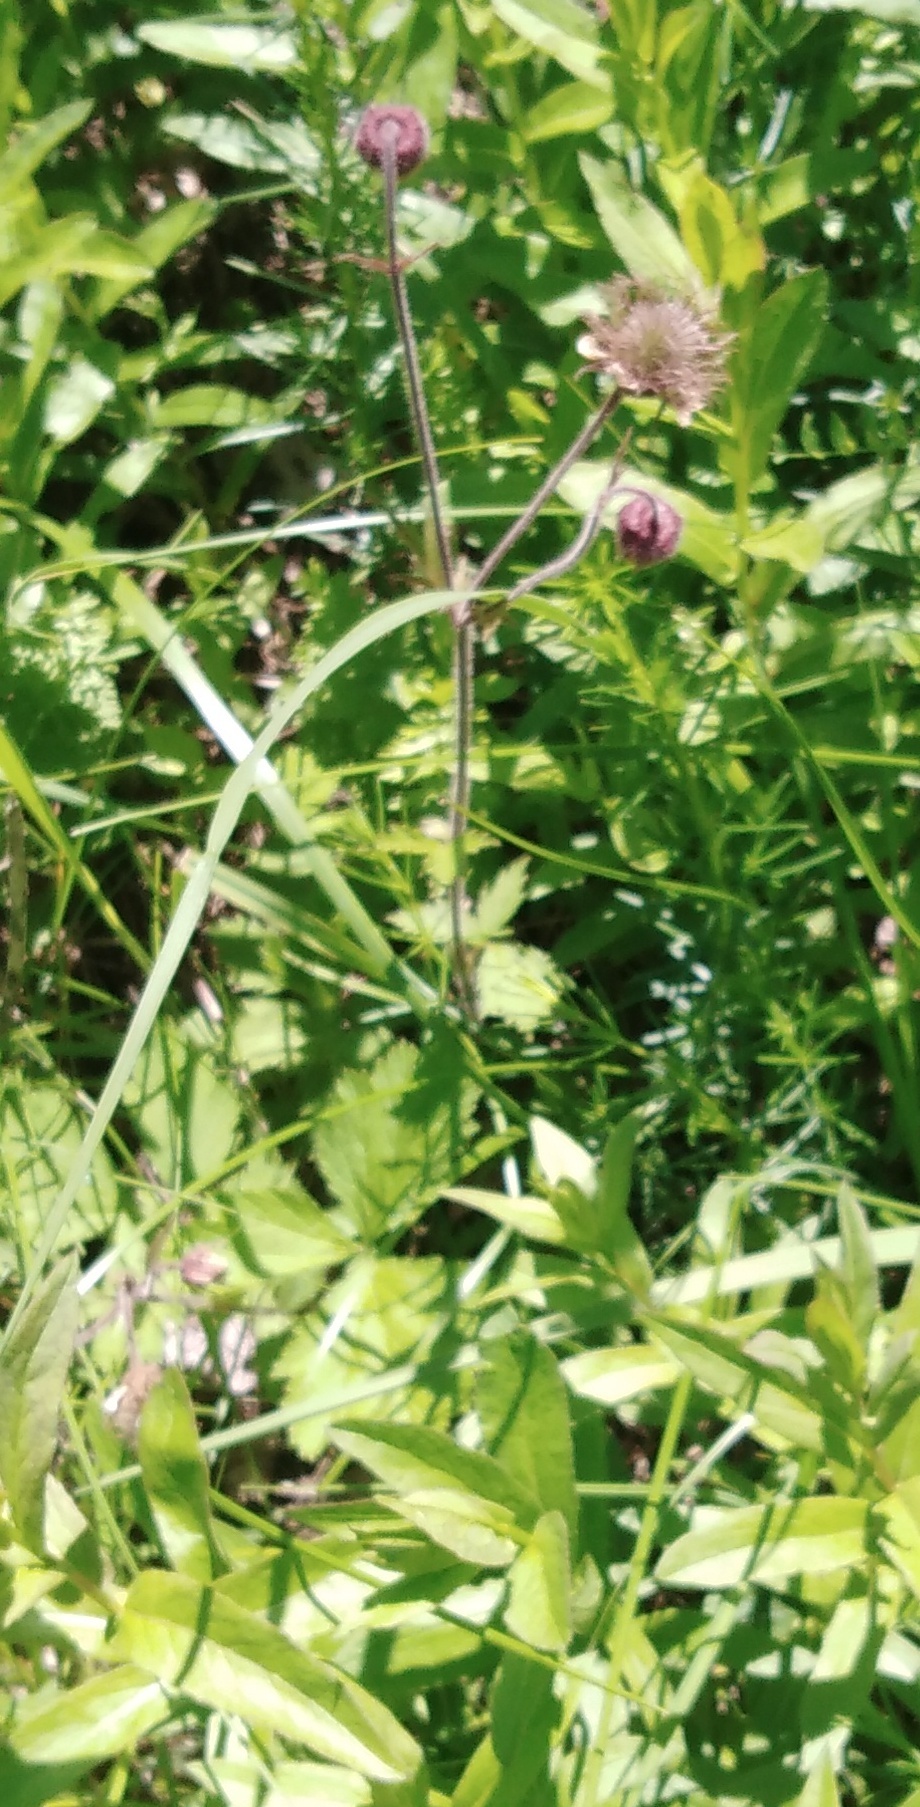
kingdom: Plantae
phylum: Tracheophyta
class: Magnoliopsida
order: Rosales
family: Rosaceae
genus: Geum
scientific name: Geum rivale
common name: Water avens
